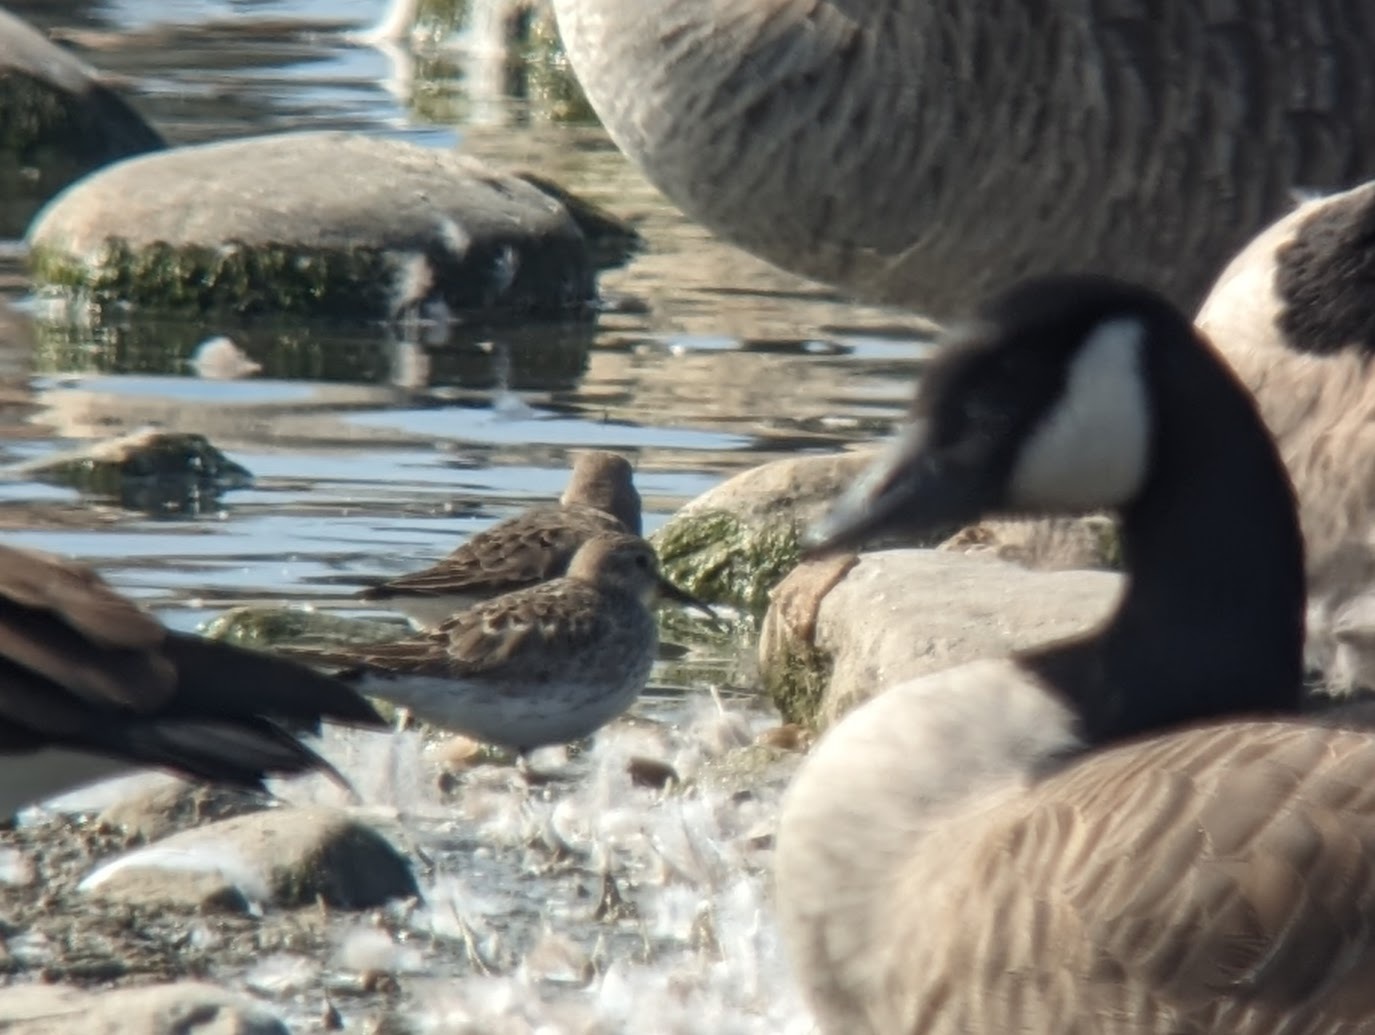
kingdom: Animalia
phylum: Chordata
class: Aves
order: Charadriiformes
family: Scolopacidae
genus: Calidris
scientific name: Calidris fuscicollis
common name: White-rumped sandpiper
